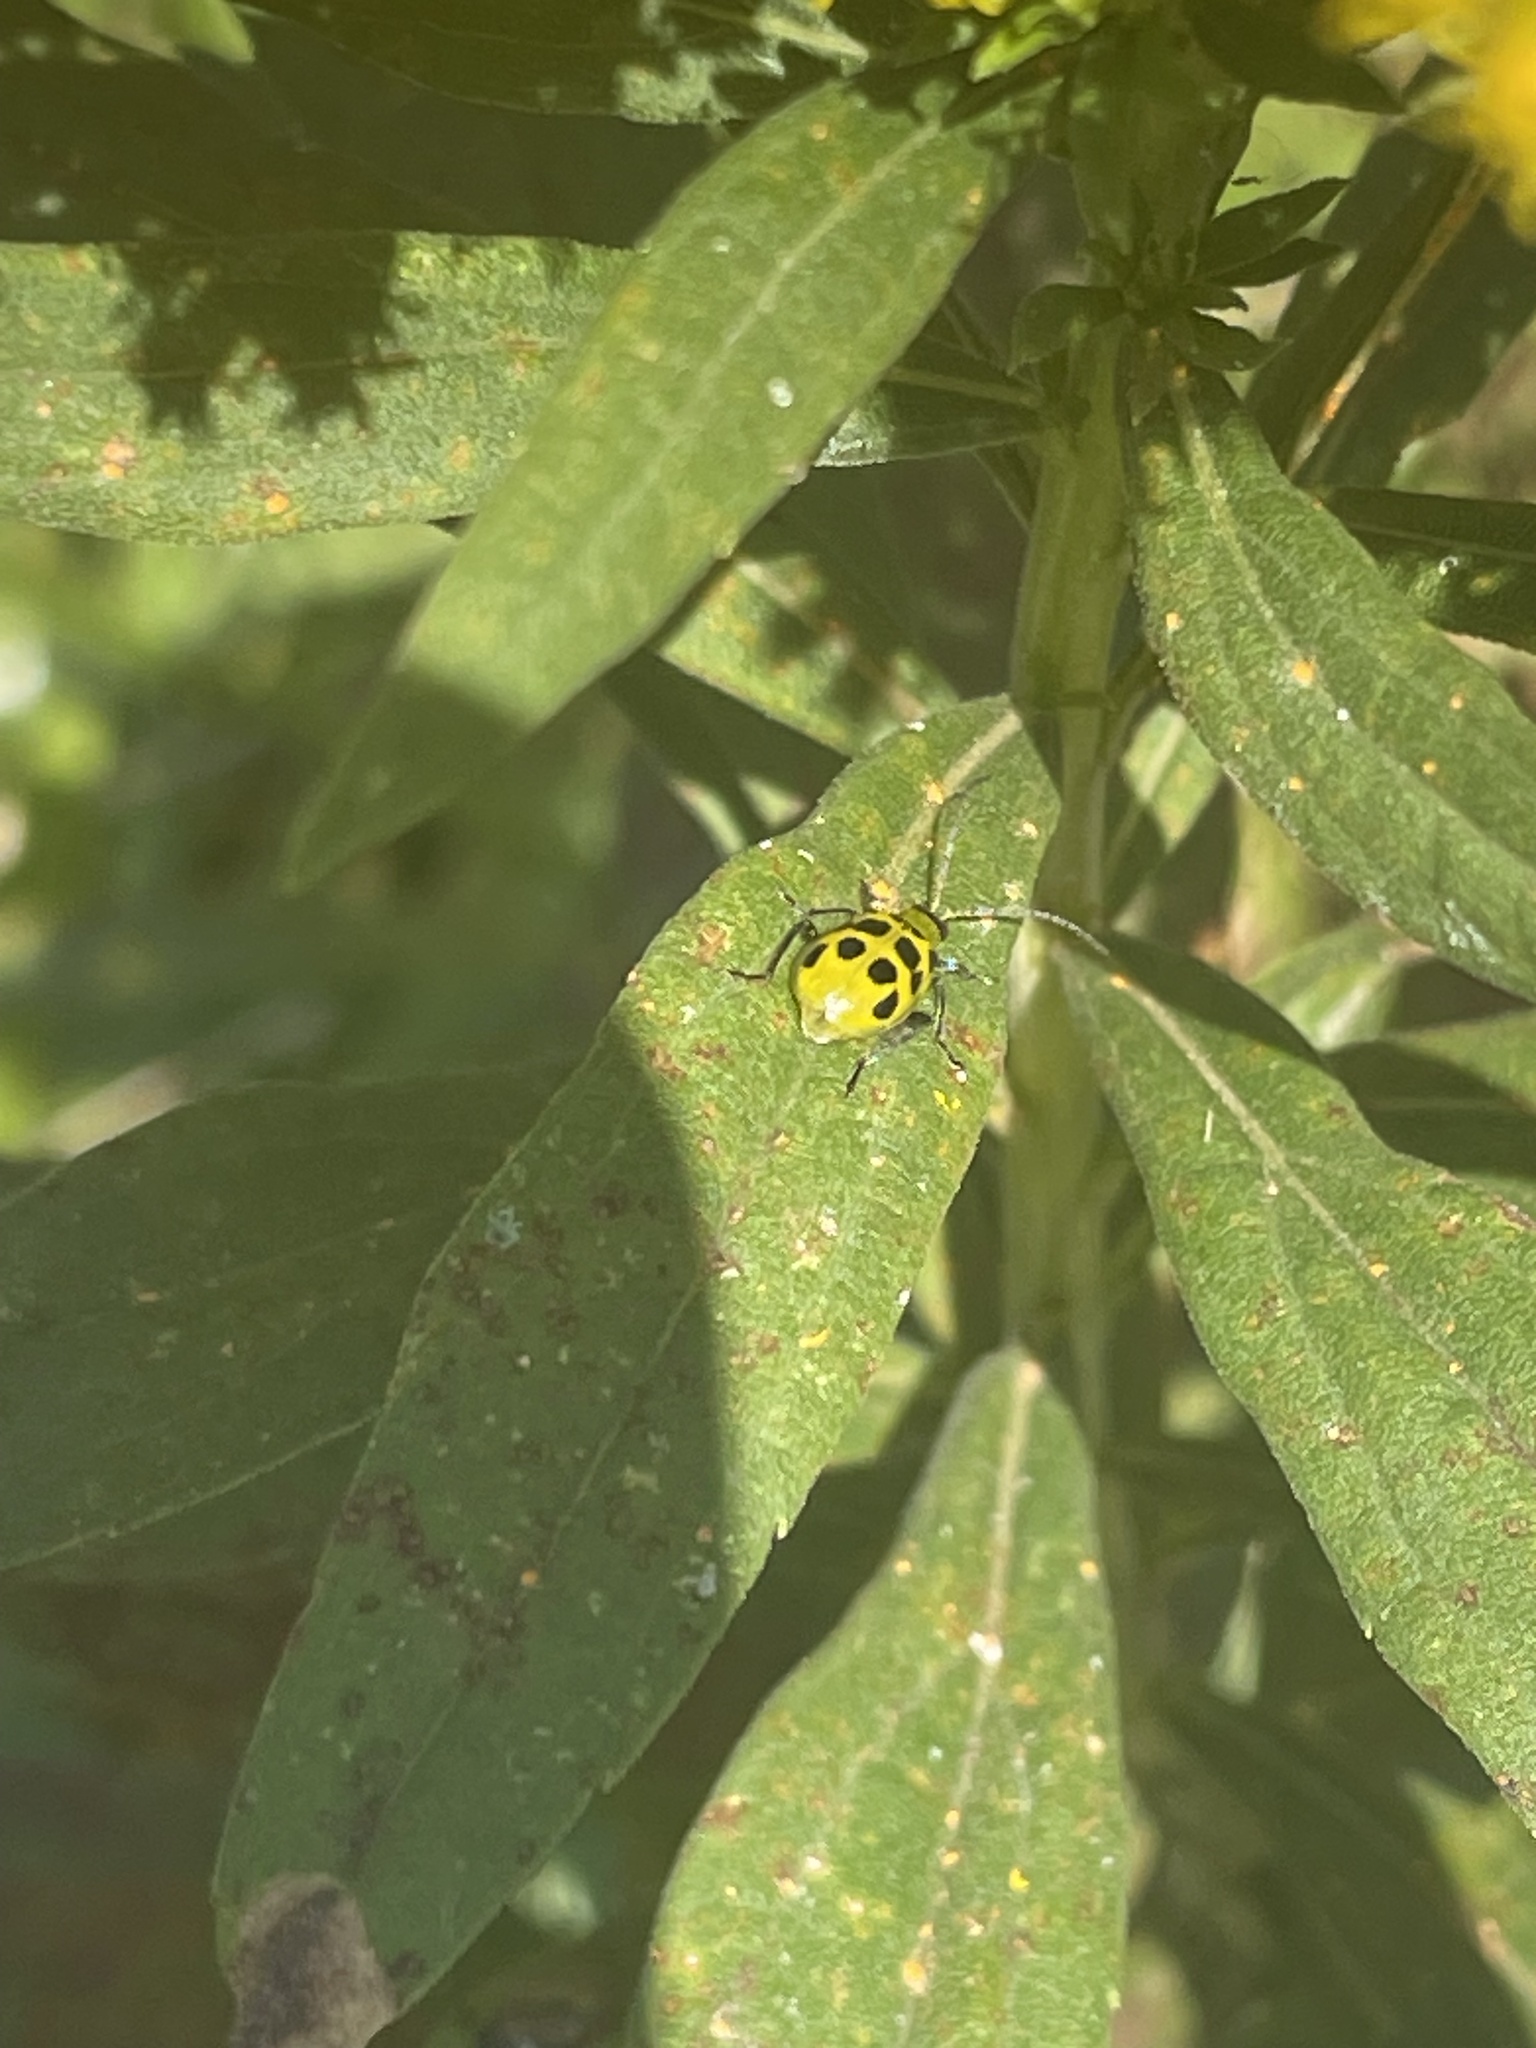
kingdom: Animalia
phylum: Arthropoda
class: Insecta
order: Coleoptera
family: Chrysomelidae
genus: Diabrotica
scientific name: Diabrotica undecimpunctata
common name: Spotted cucumber beetle
